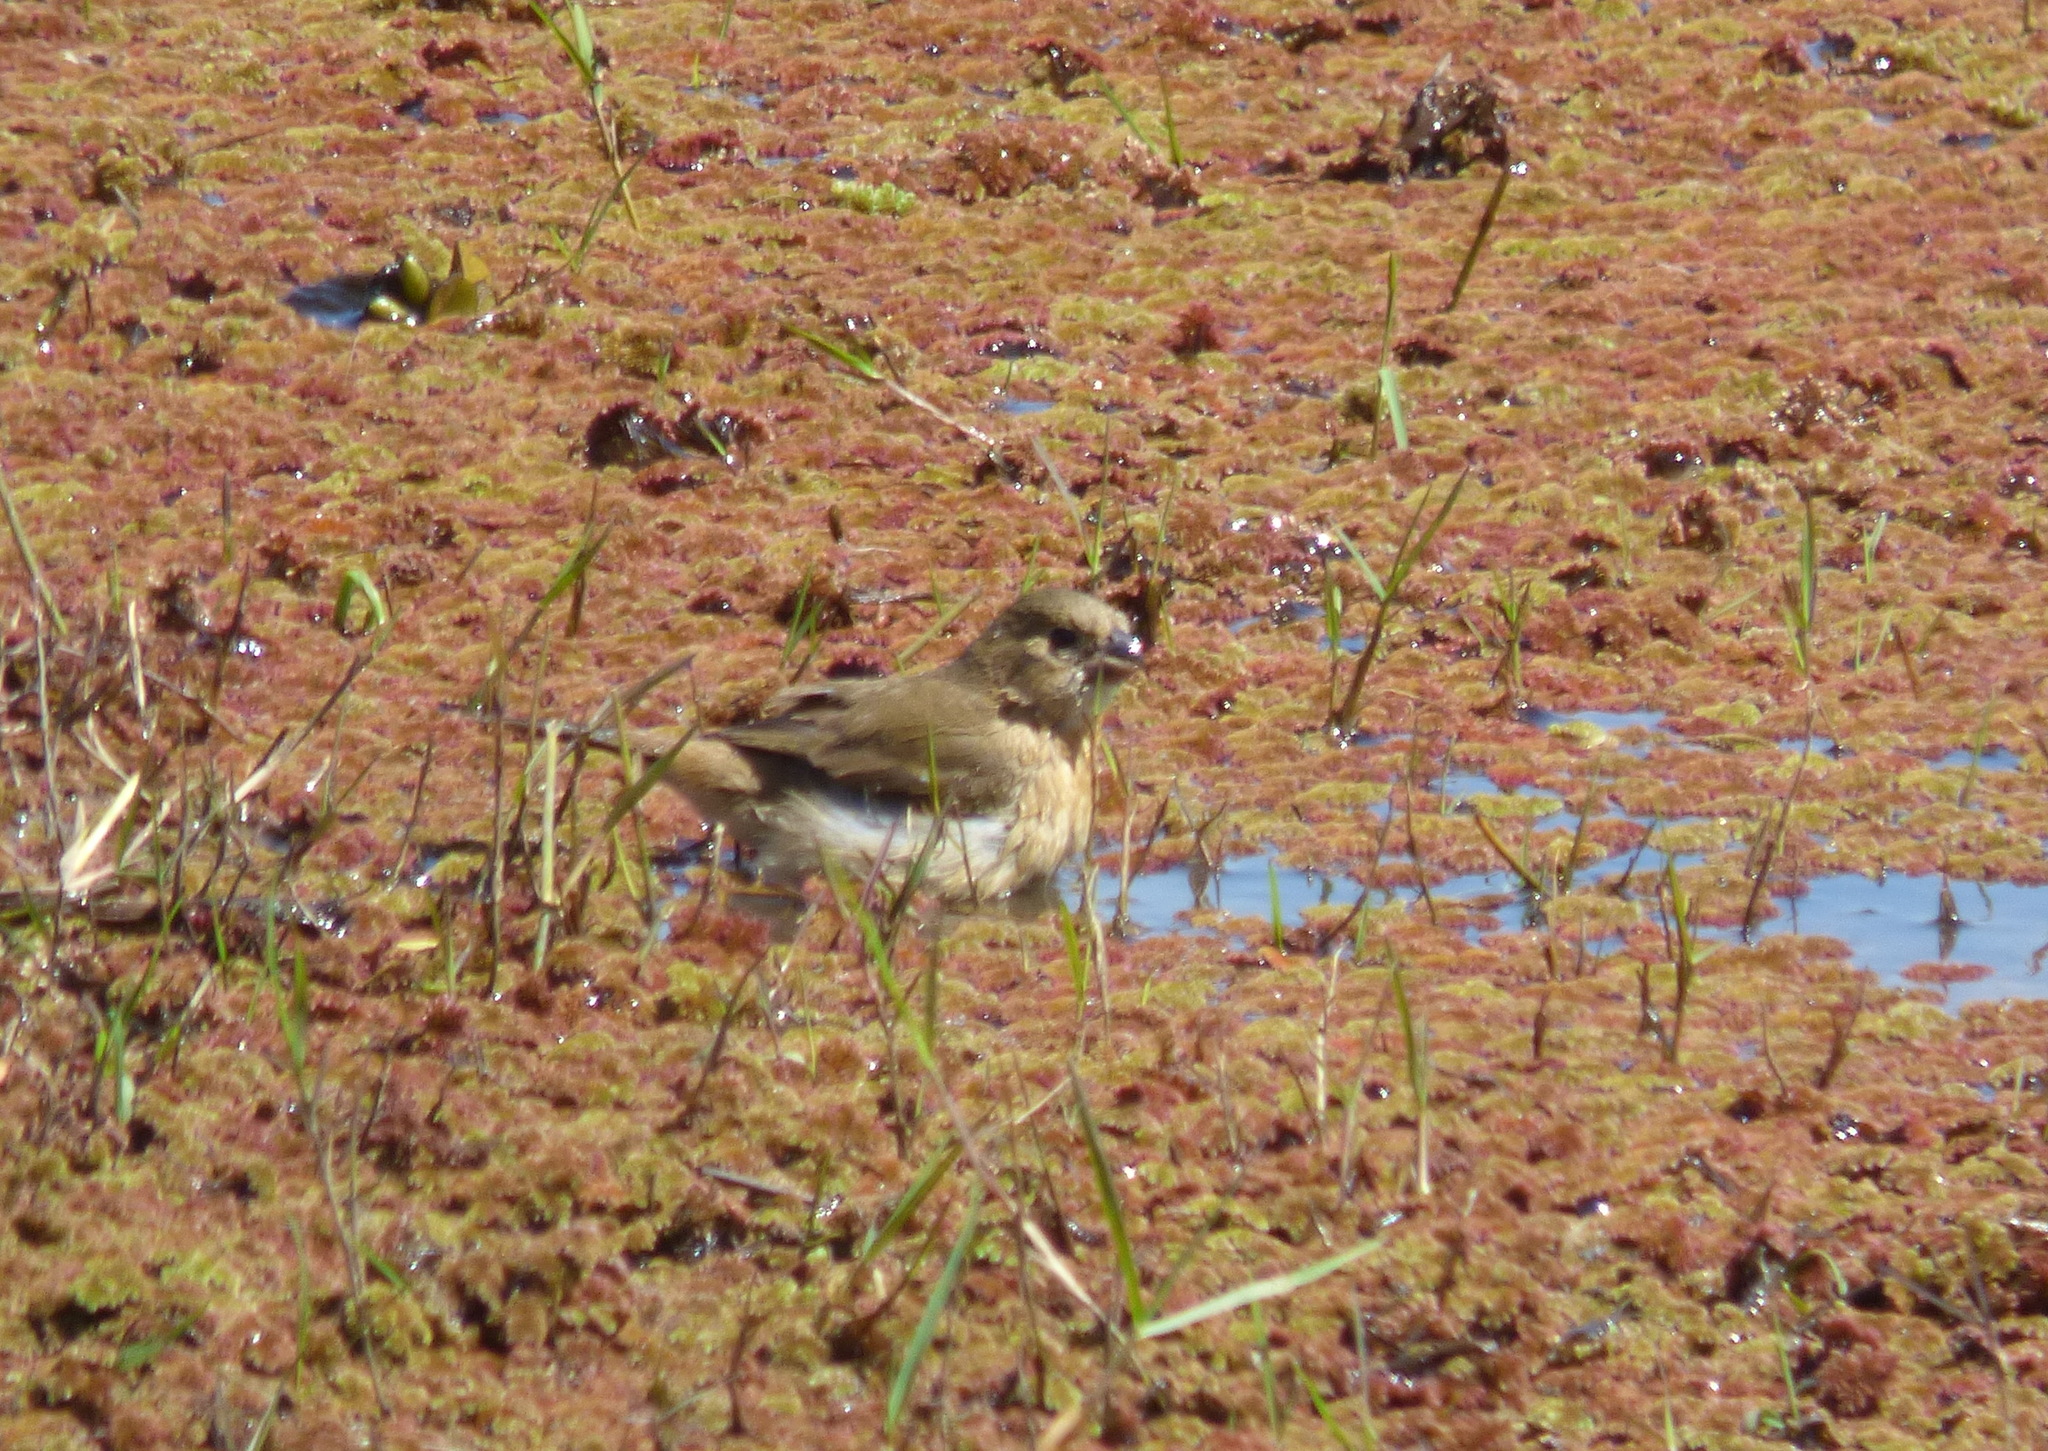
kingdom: Animalia
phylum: Chordata
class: Aves
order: Passeriformes
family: Thraupidae
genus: Sporophila
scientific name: Sporophila leucoptera
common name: White-bellied seedeater
